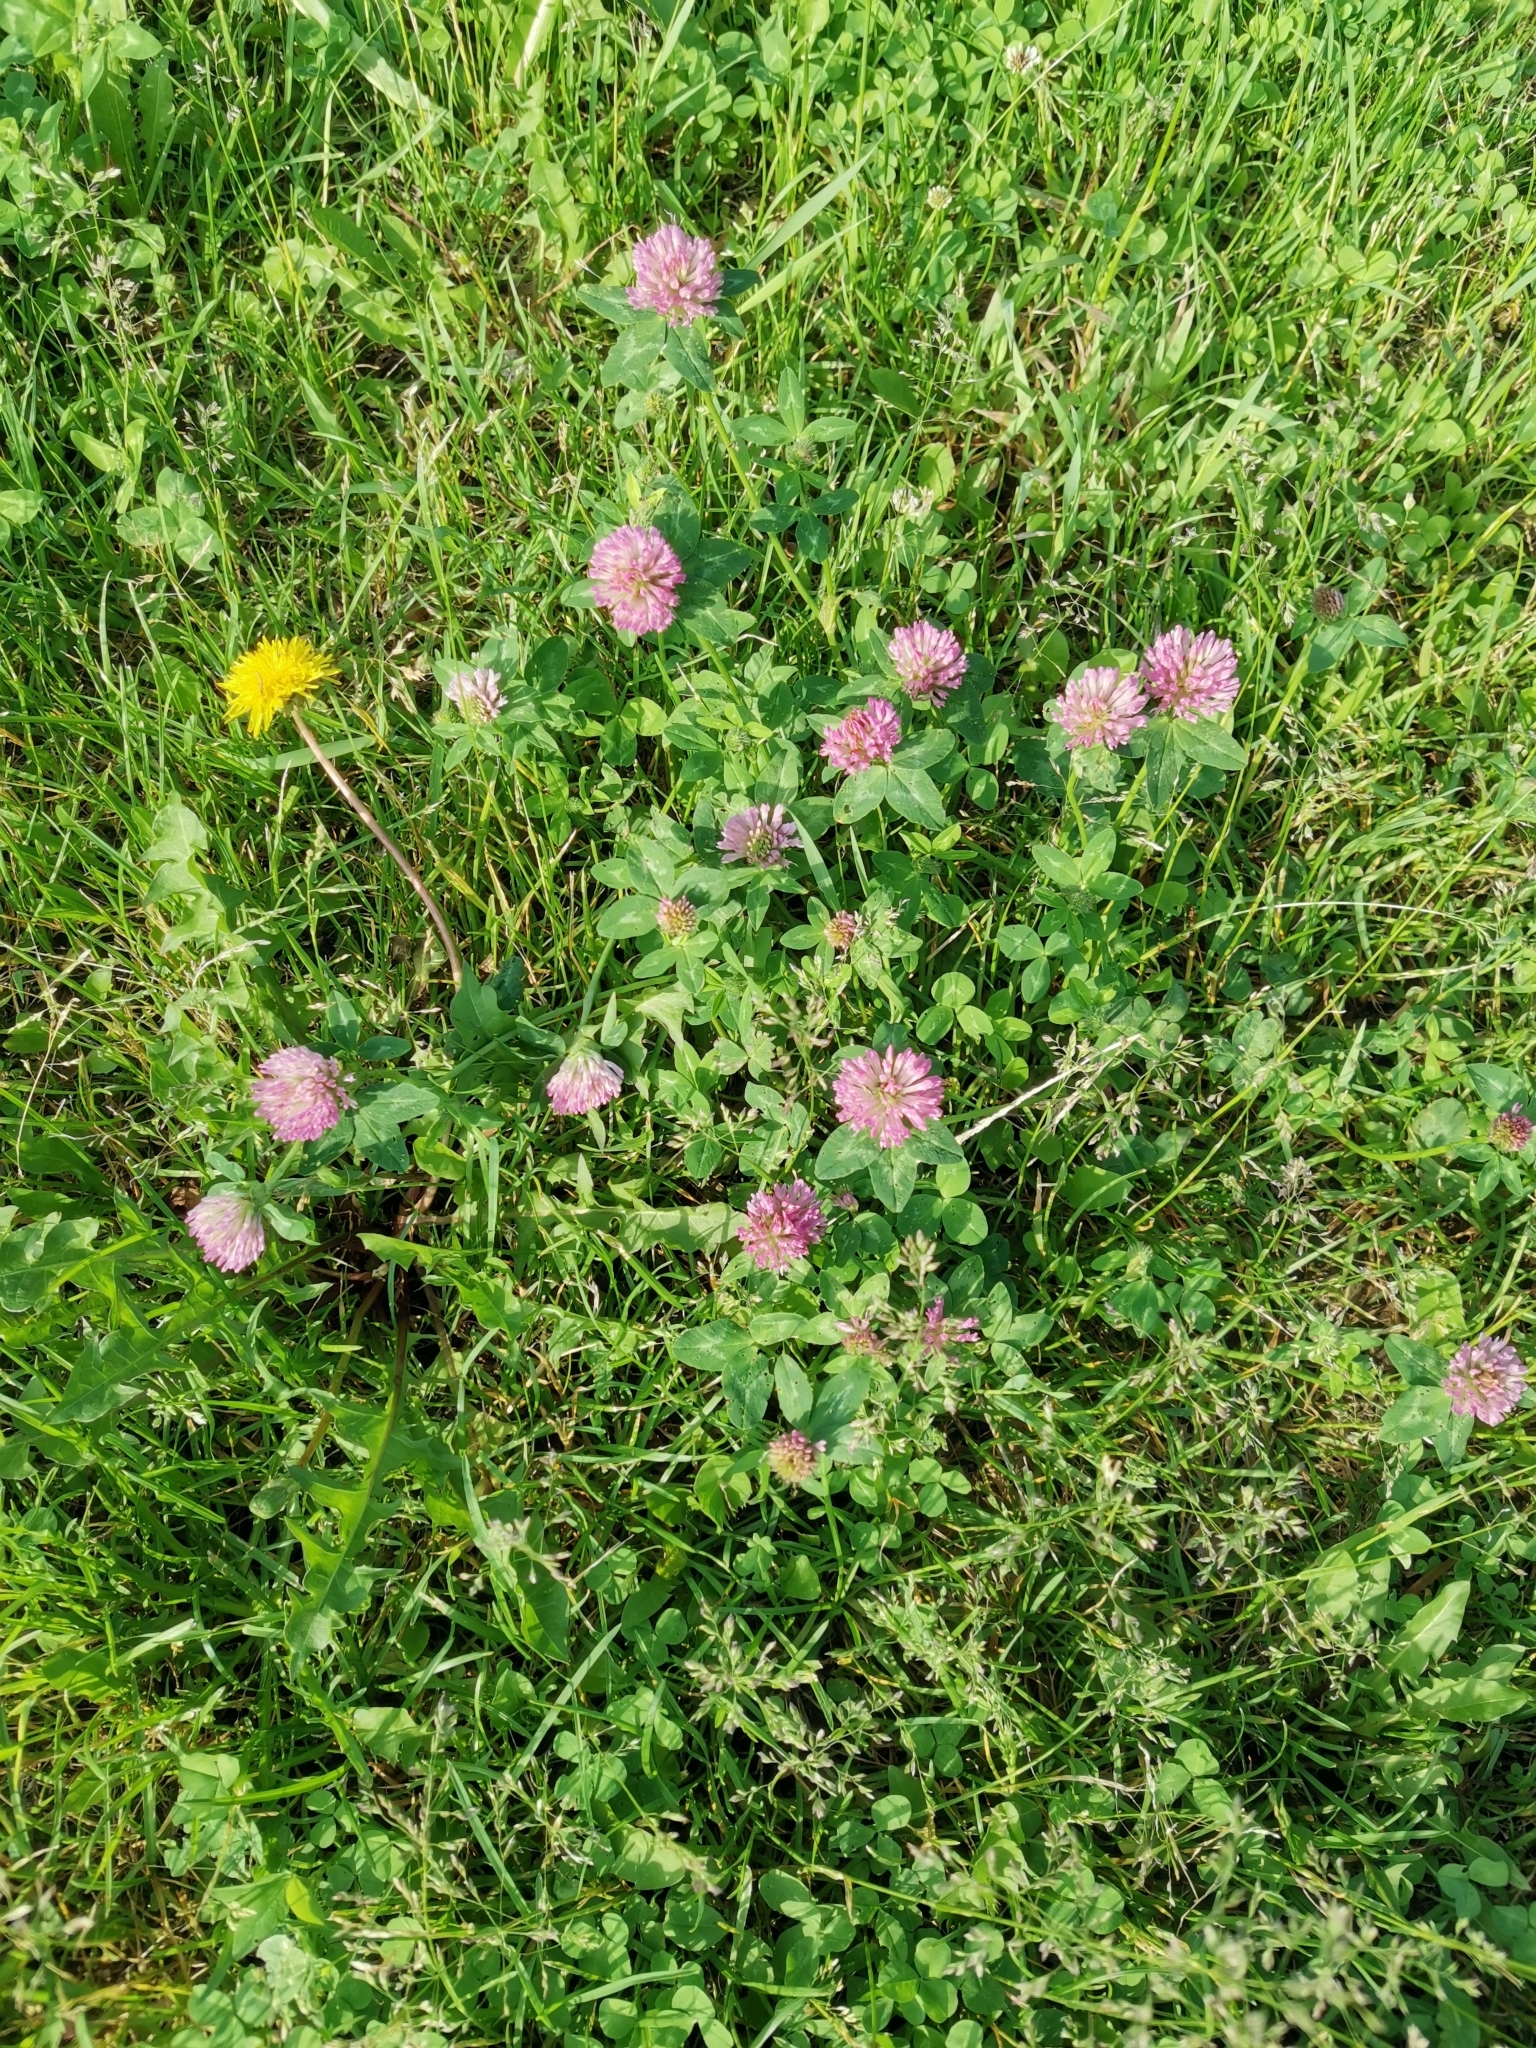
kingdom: Plantae
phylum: Tracheophyta
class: Magnoliopsida
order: Fabales
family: Fabaceae
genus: Trifolium
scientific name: Trifolium pratense
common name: Red clover
